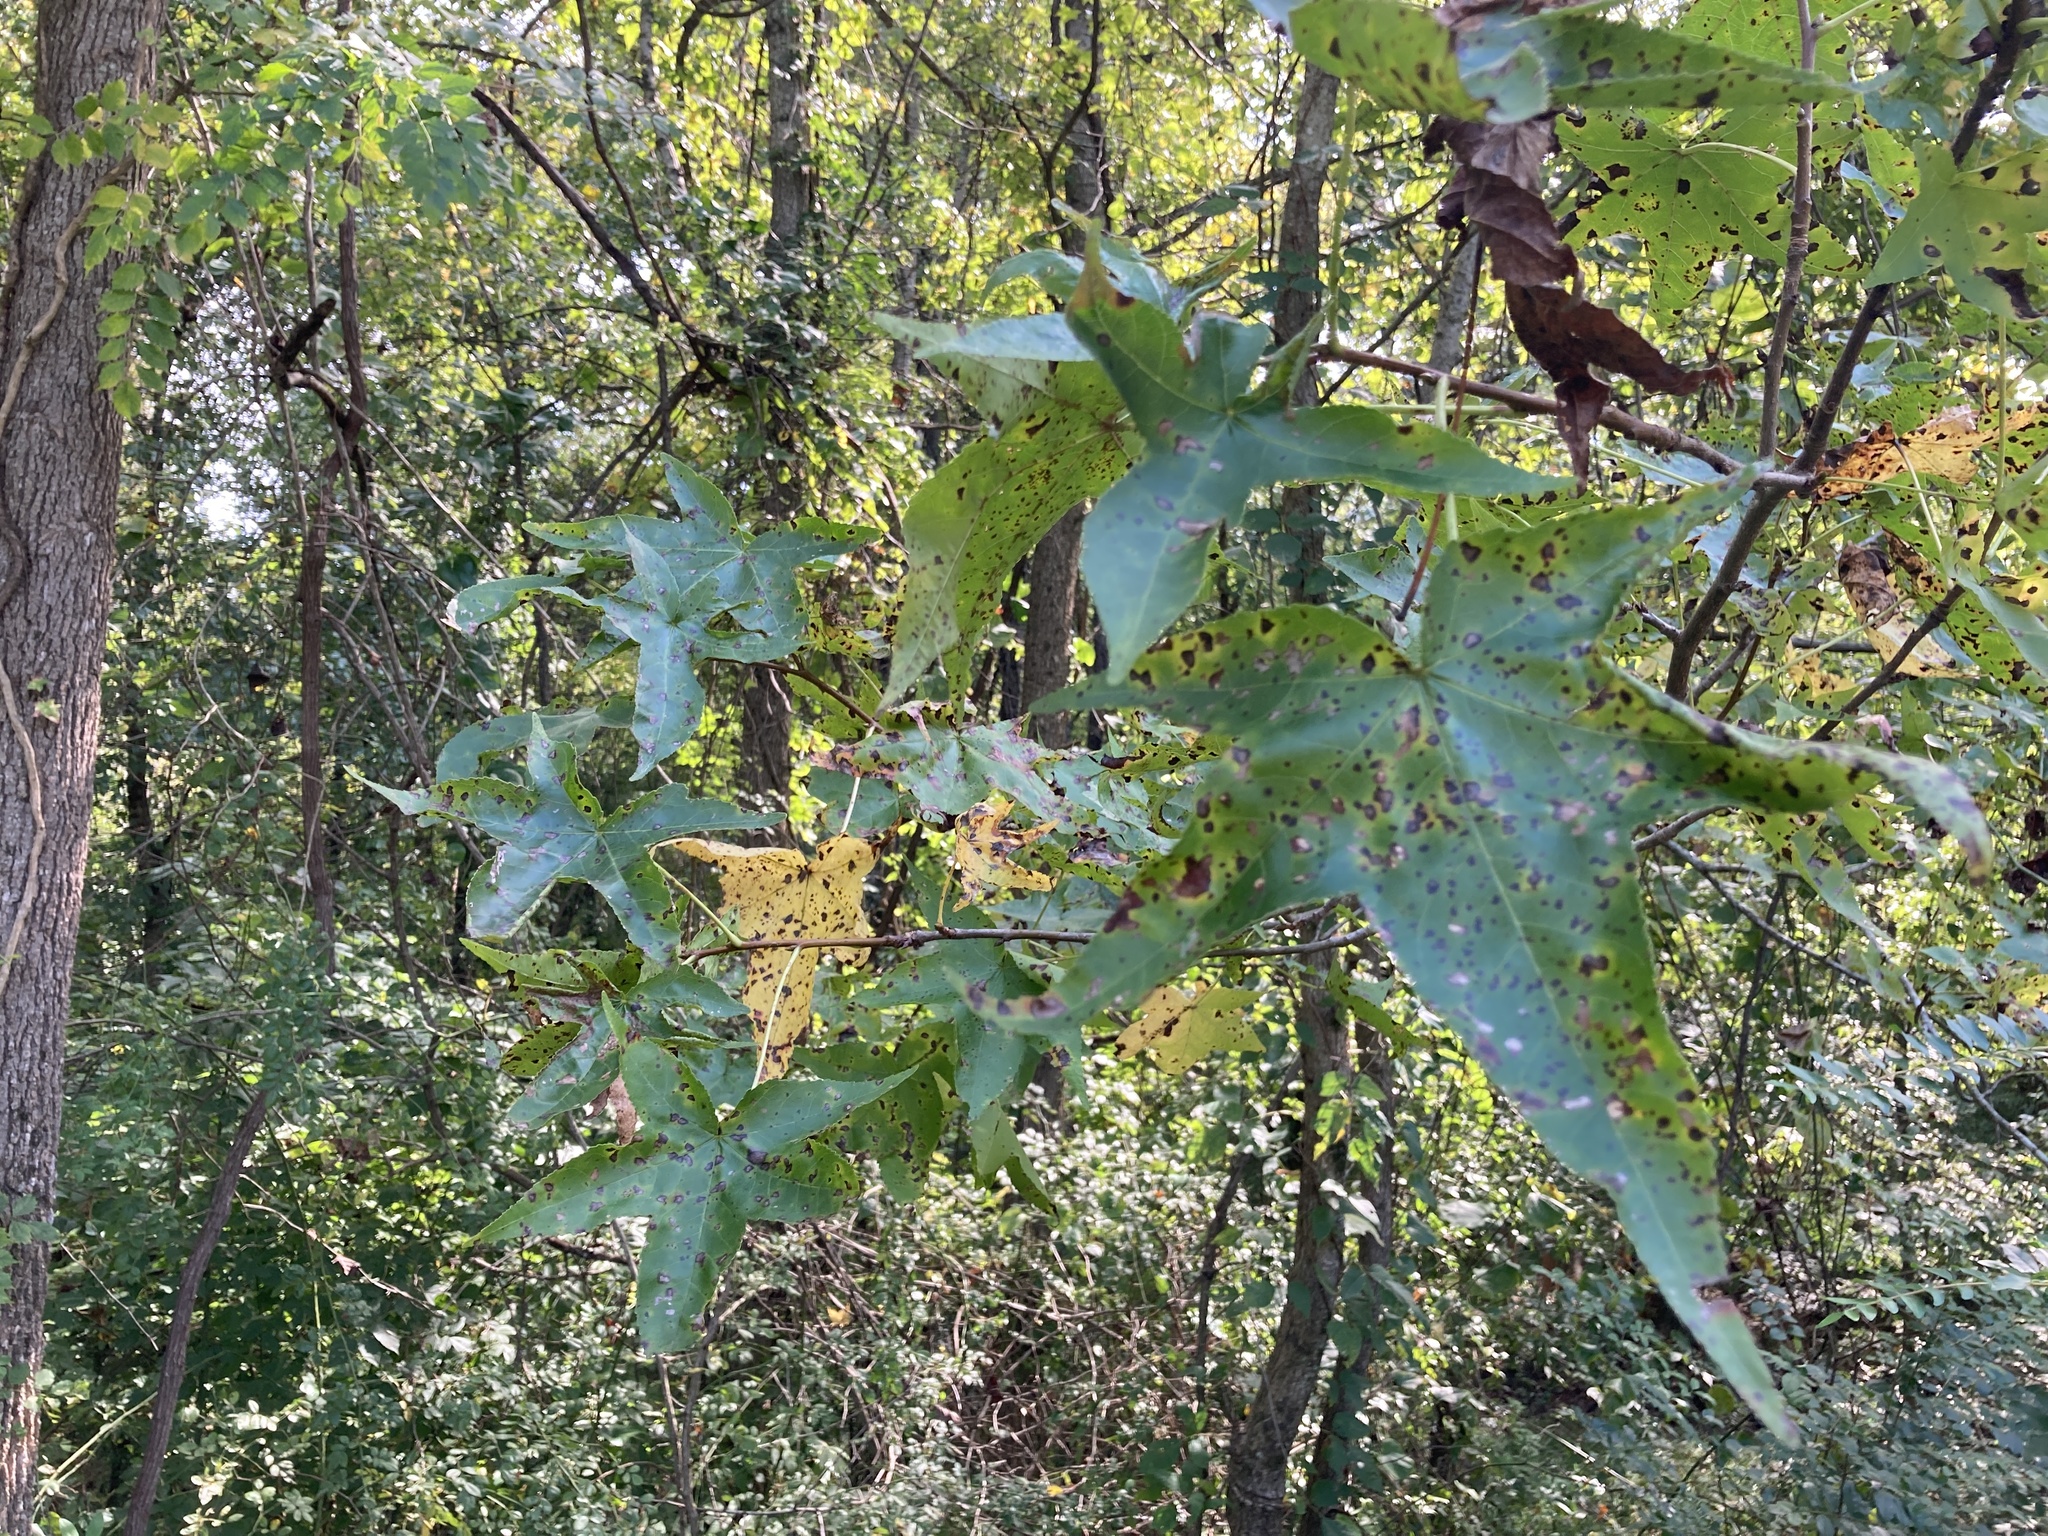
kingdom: Plantae
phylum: Tracheophyta
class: Magnoliopsida
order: Saxifragales
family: Altingiaceae
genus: Liquidambar
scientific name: Liquidambar styraciflua
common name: Sweet gum
